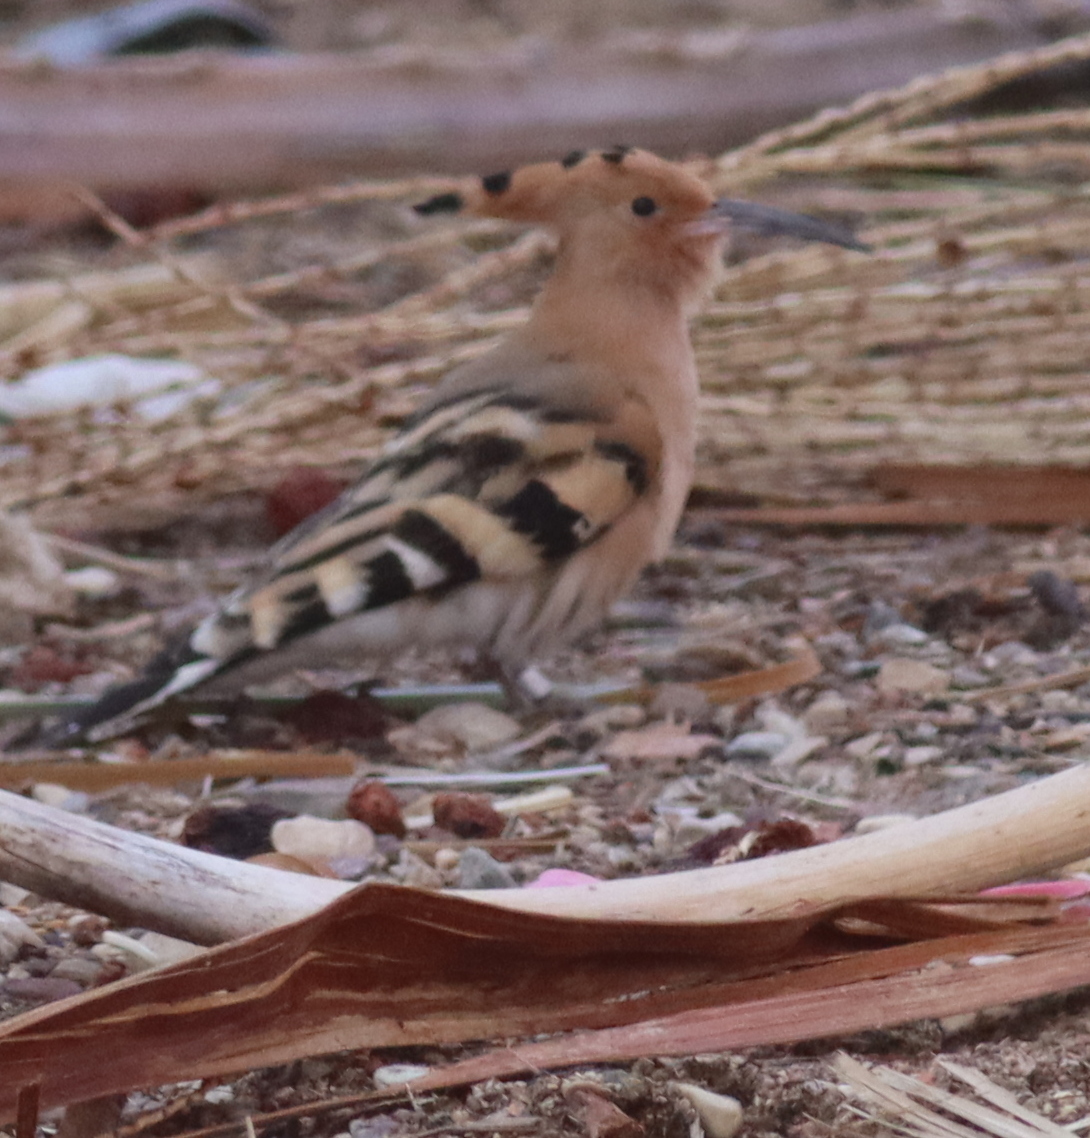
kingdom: Animalia
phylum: Chordata
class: Aves
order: Bucerotiformes
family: Upupidae
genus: Upupa
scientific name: Upupa epops
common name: Eurasian hoopoe
